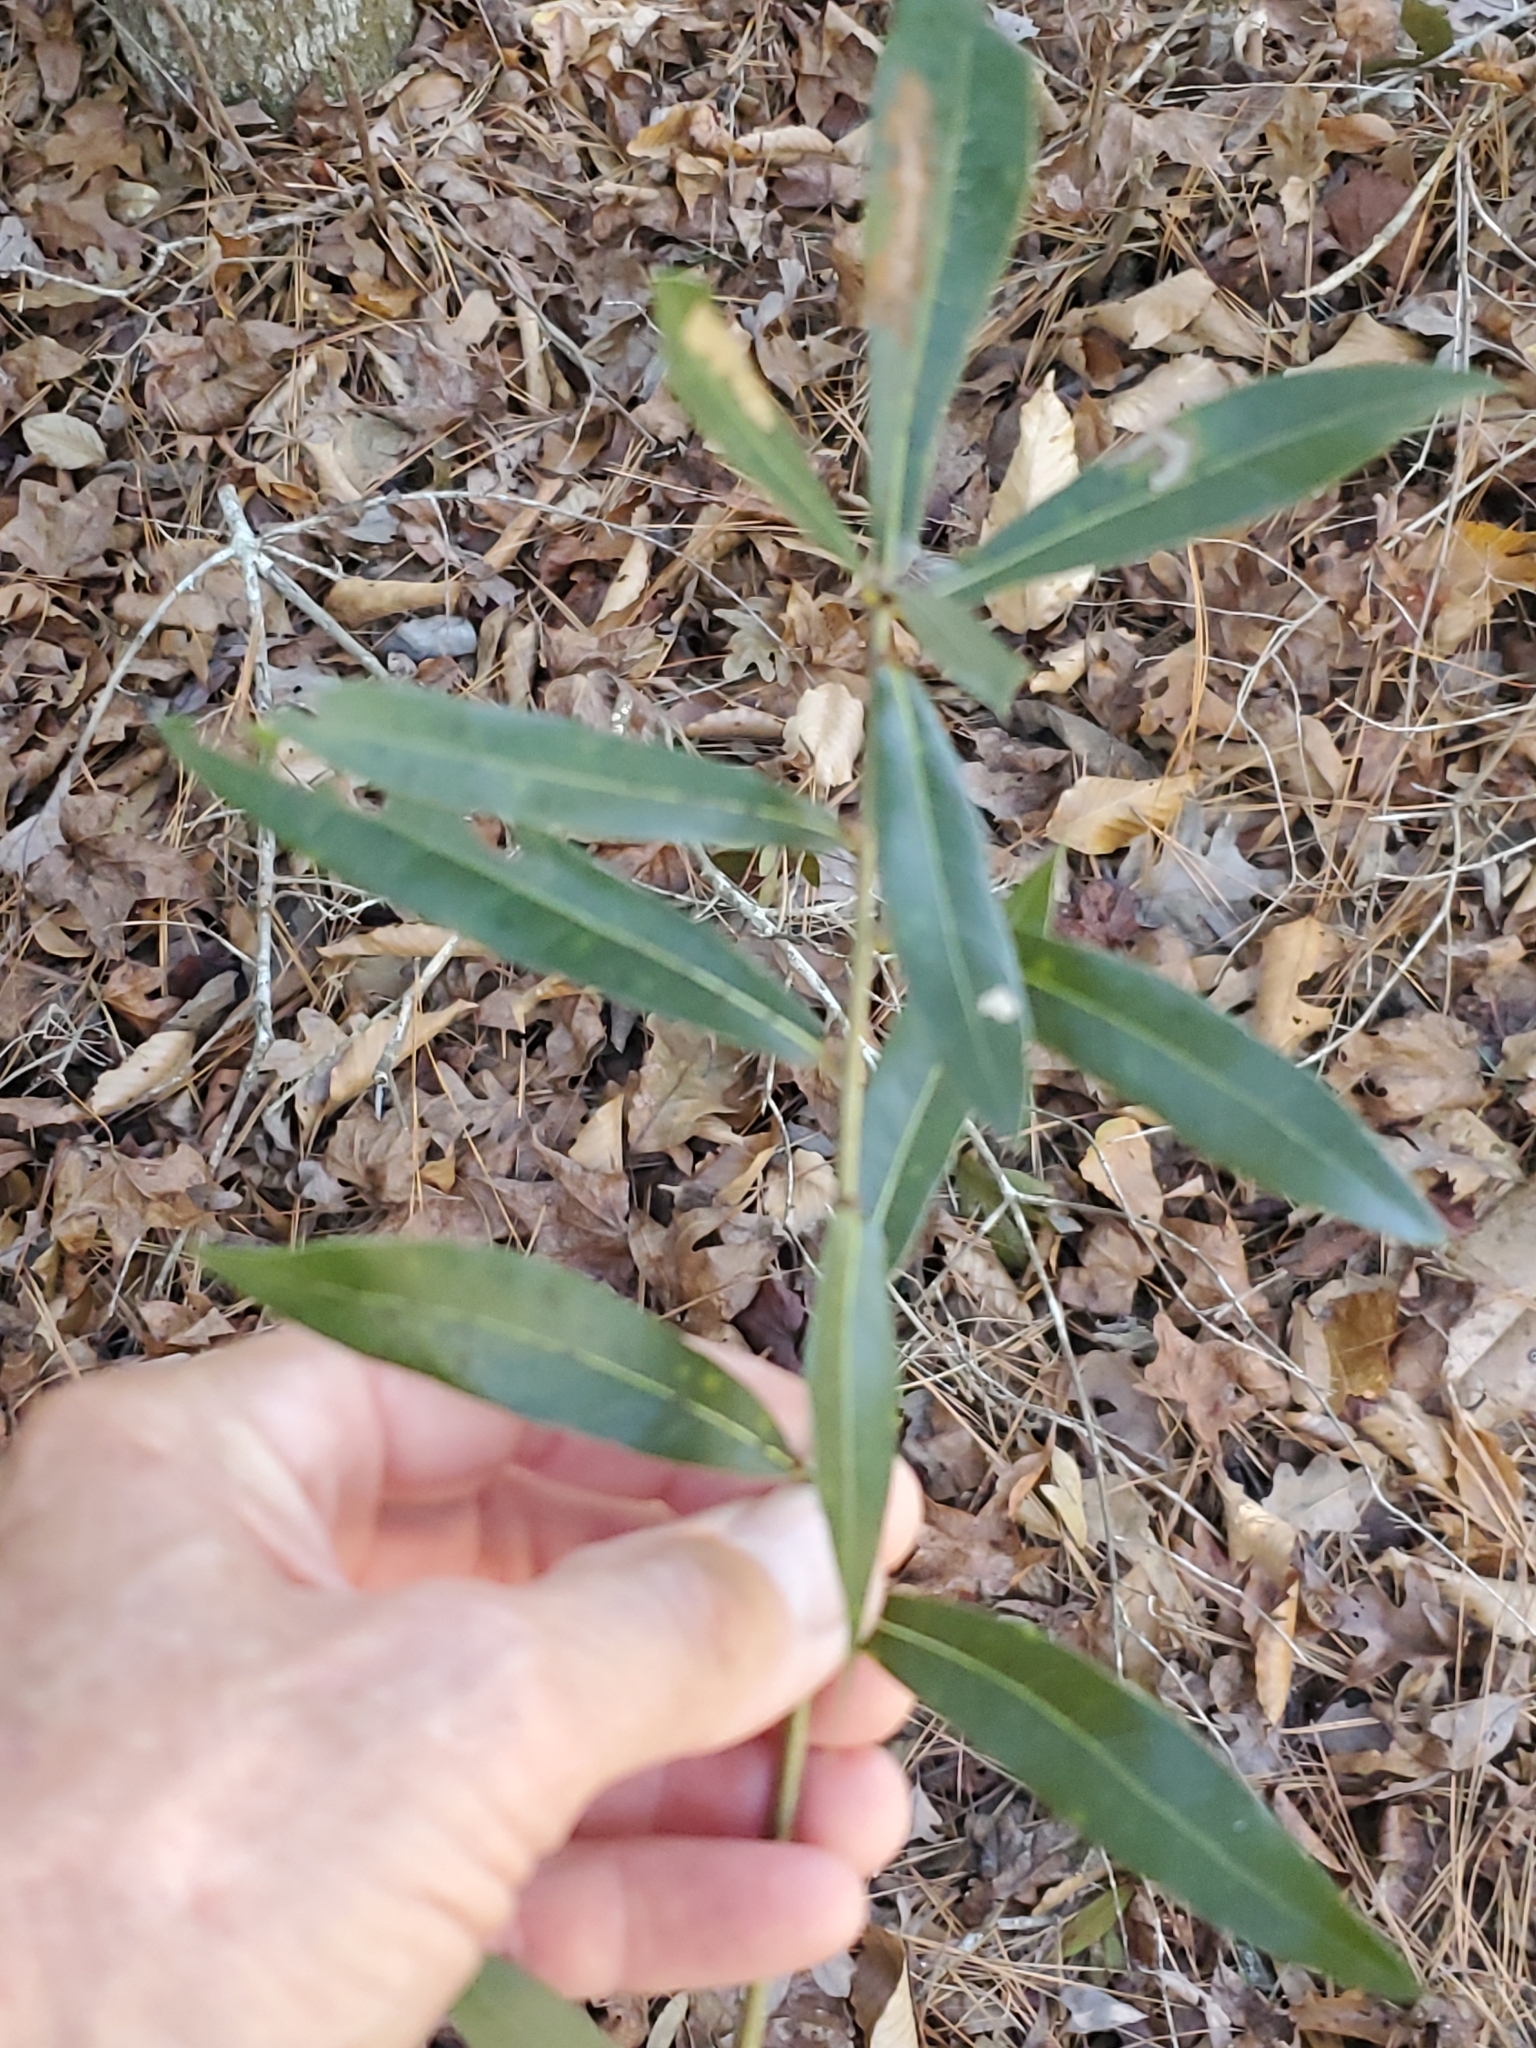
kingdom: Plantae
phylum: Tracheophyta
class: Magnoliopsida
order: Fagales
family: Fagaceae
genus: Quercus
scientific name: Quercus phellos
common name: Willow oak
